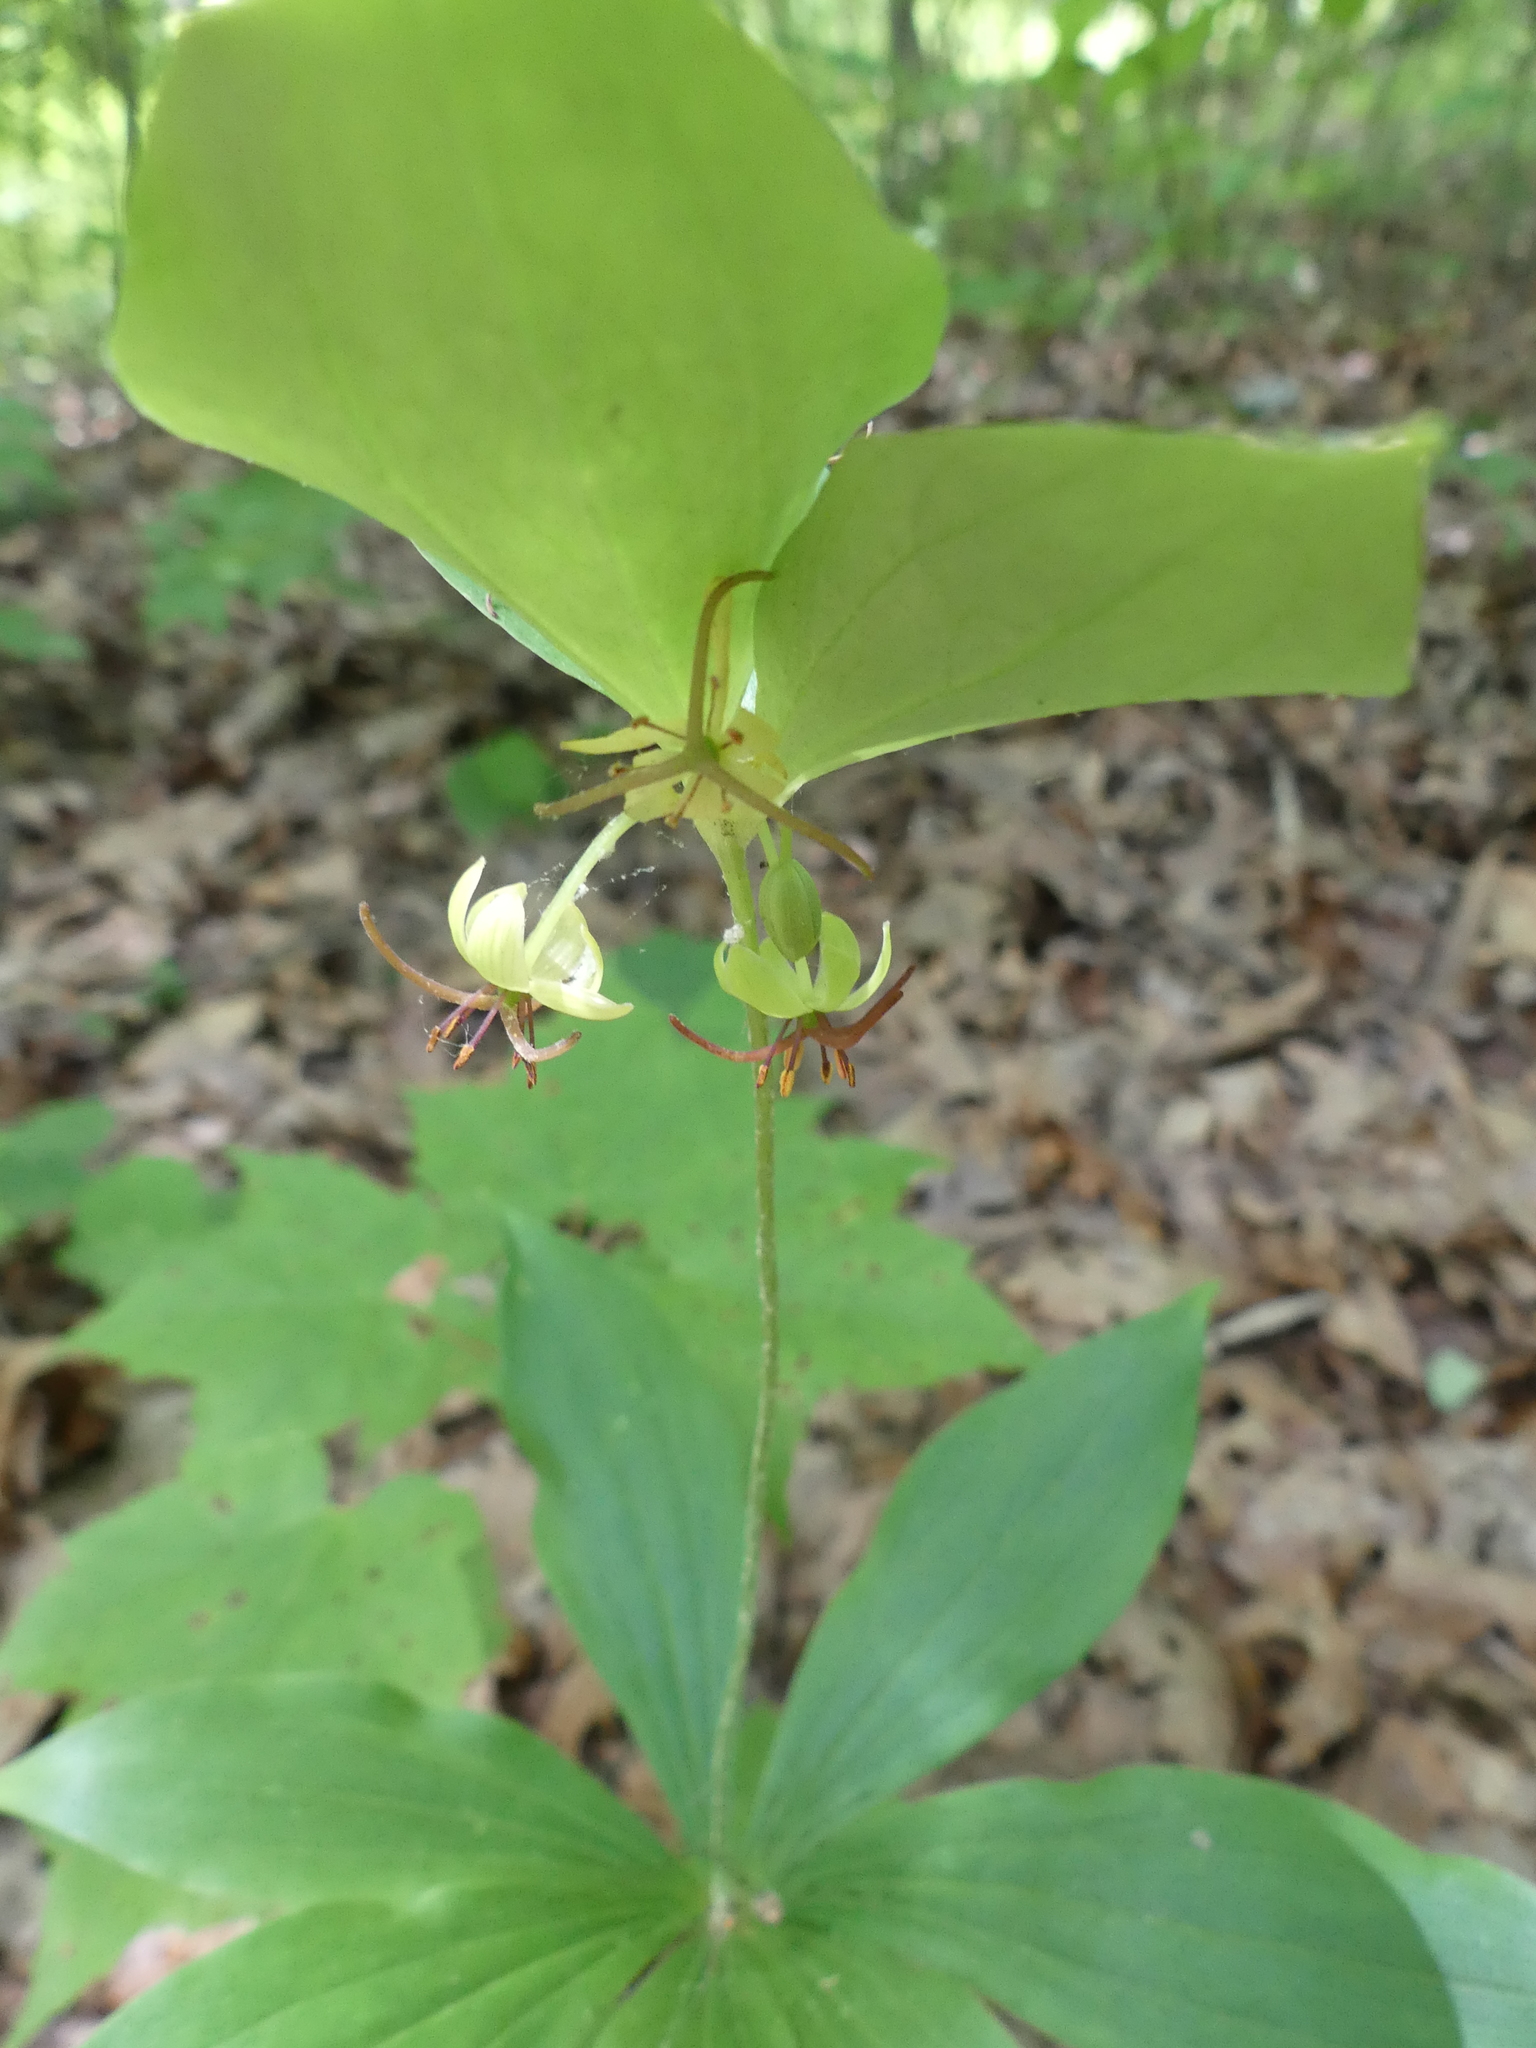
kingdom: Plantae
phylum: Tracheophyta
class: Liliopsida
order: Liliales
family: Liliaceae
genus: Medeola
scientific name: Medeola virginiana
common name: Indian cucumber-root
